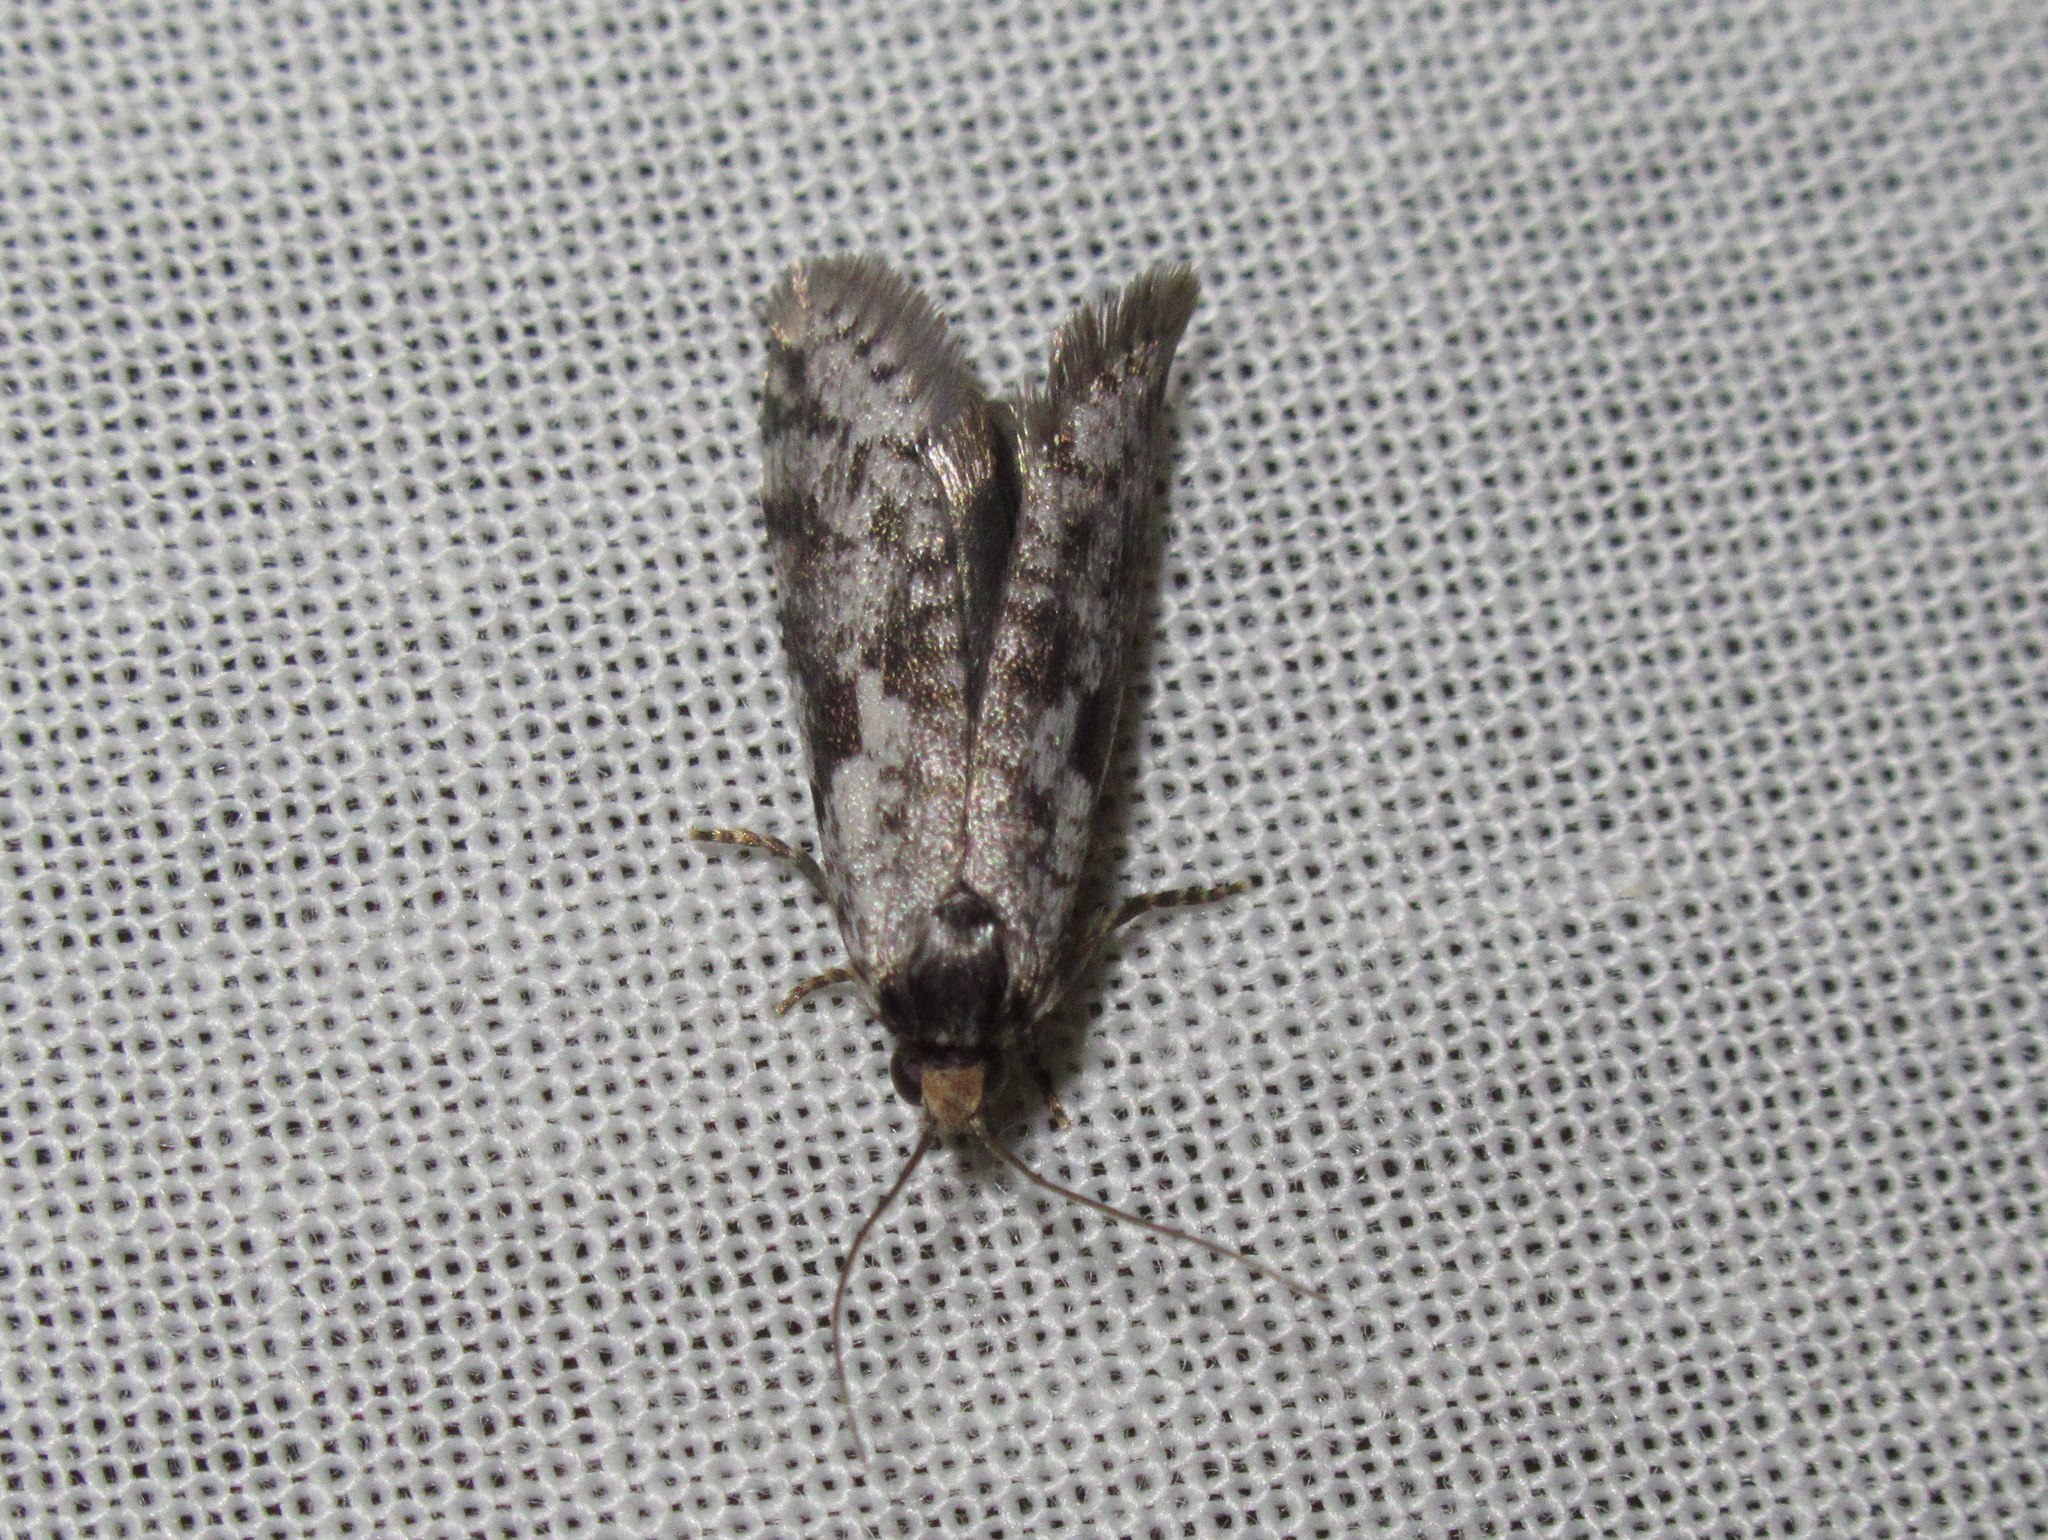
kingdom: Animalia
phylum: Arthropoda
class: Insecta
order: Lepidoptera
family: Psychidae
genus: Lepidoscia
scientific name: Lepidoscia protorna
